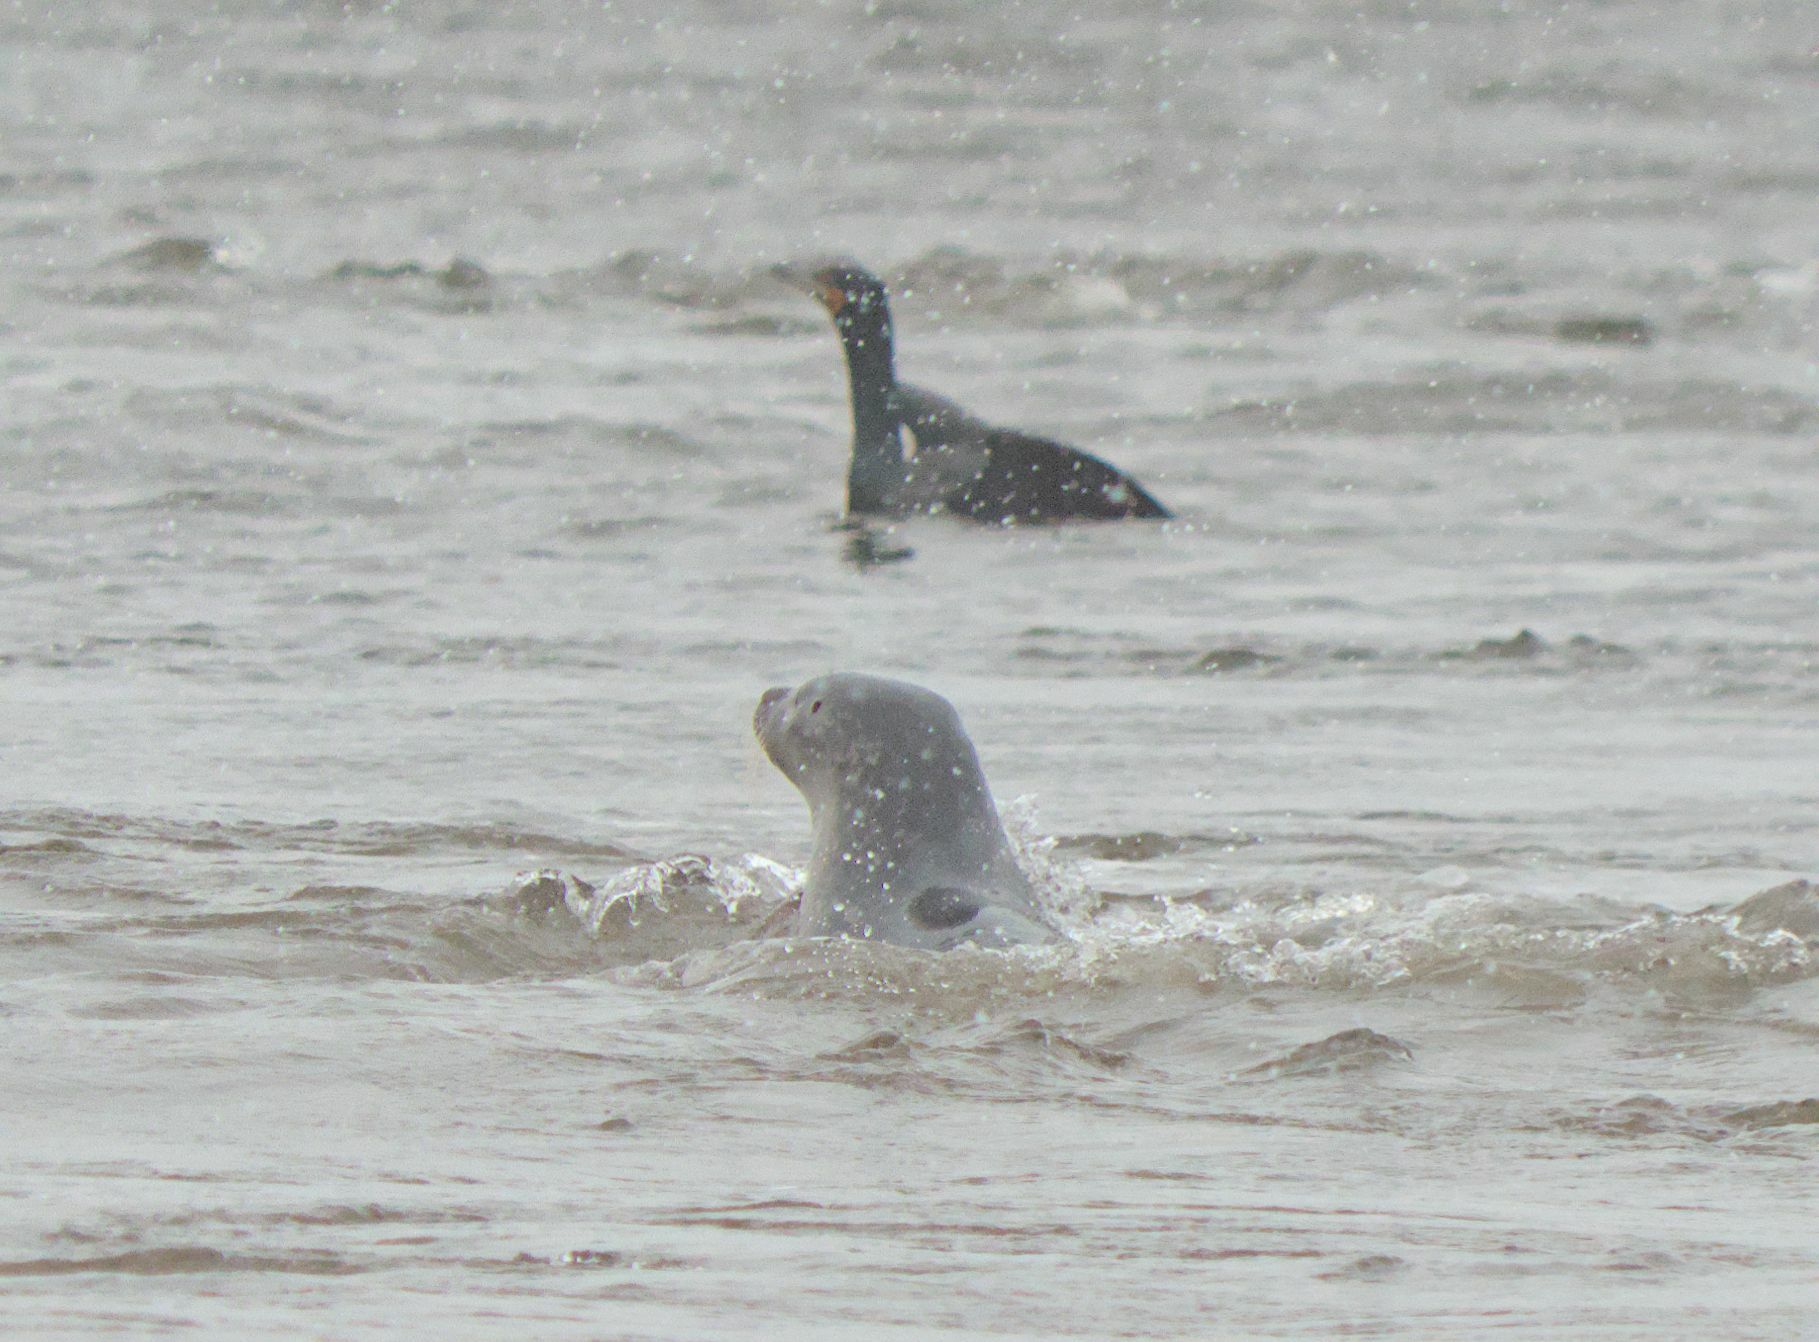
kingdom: Animalia
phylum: Chordata
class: Mammalia
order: Carnivora
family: Phocidae
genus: Phoca
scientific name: Phoca vitulina
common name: Harbor seal
